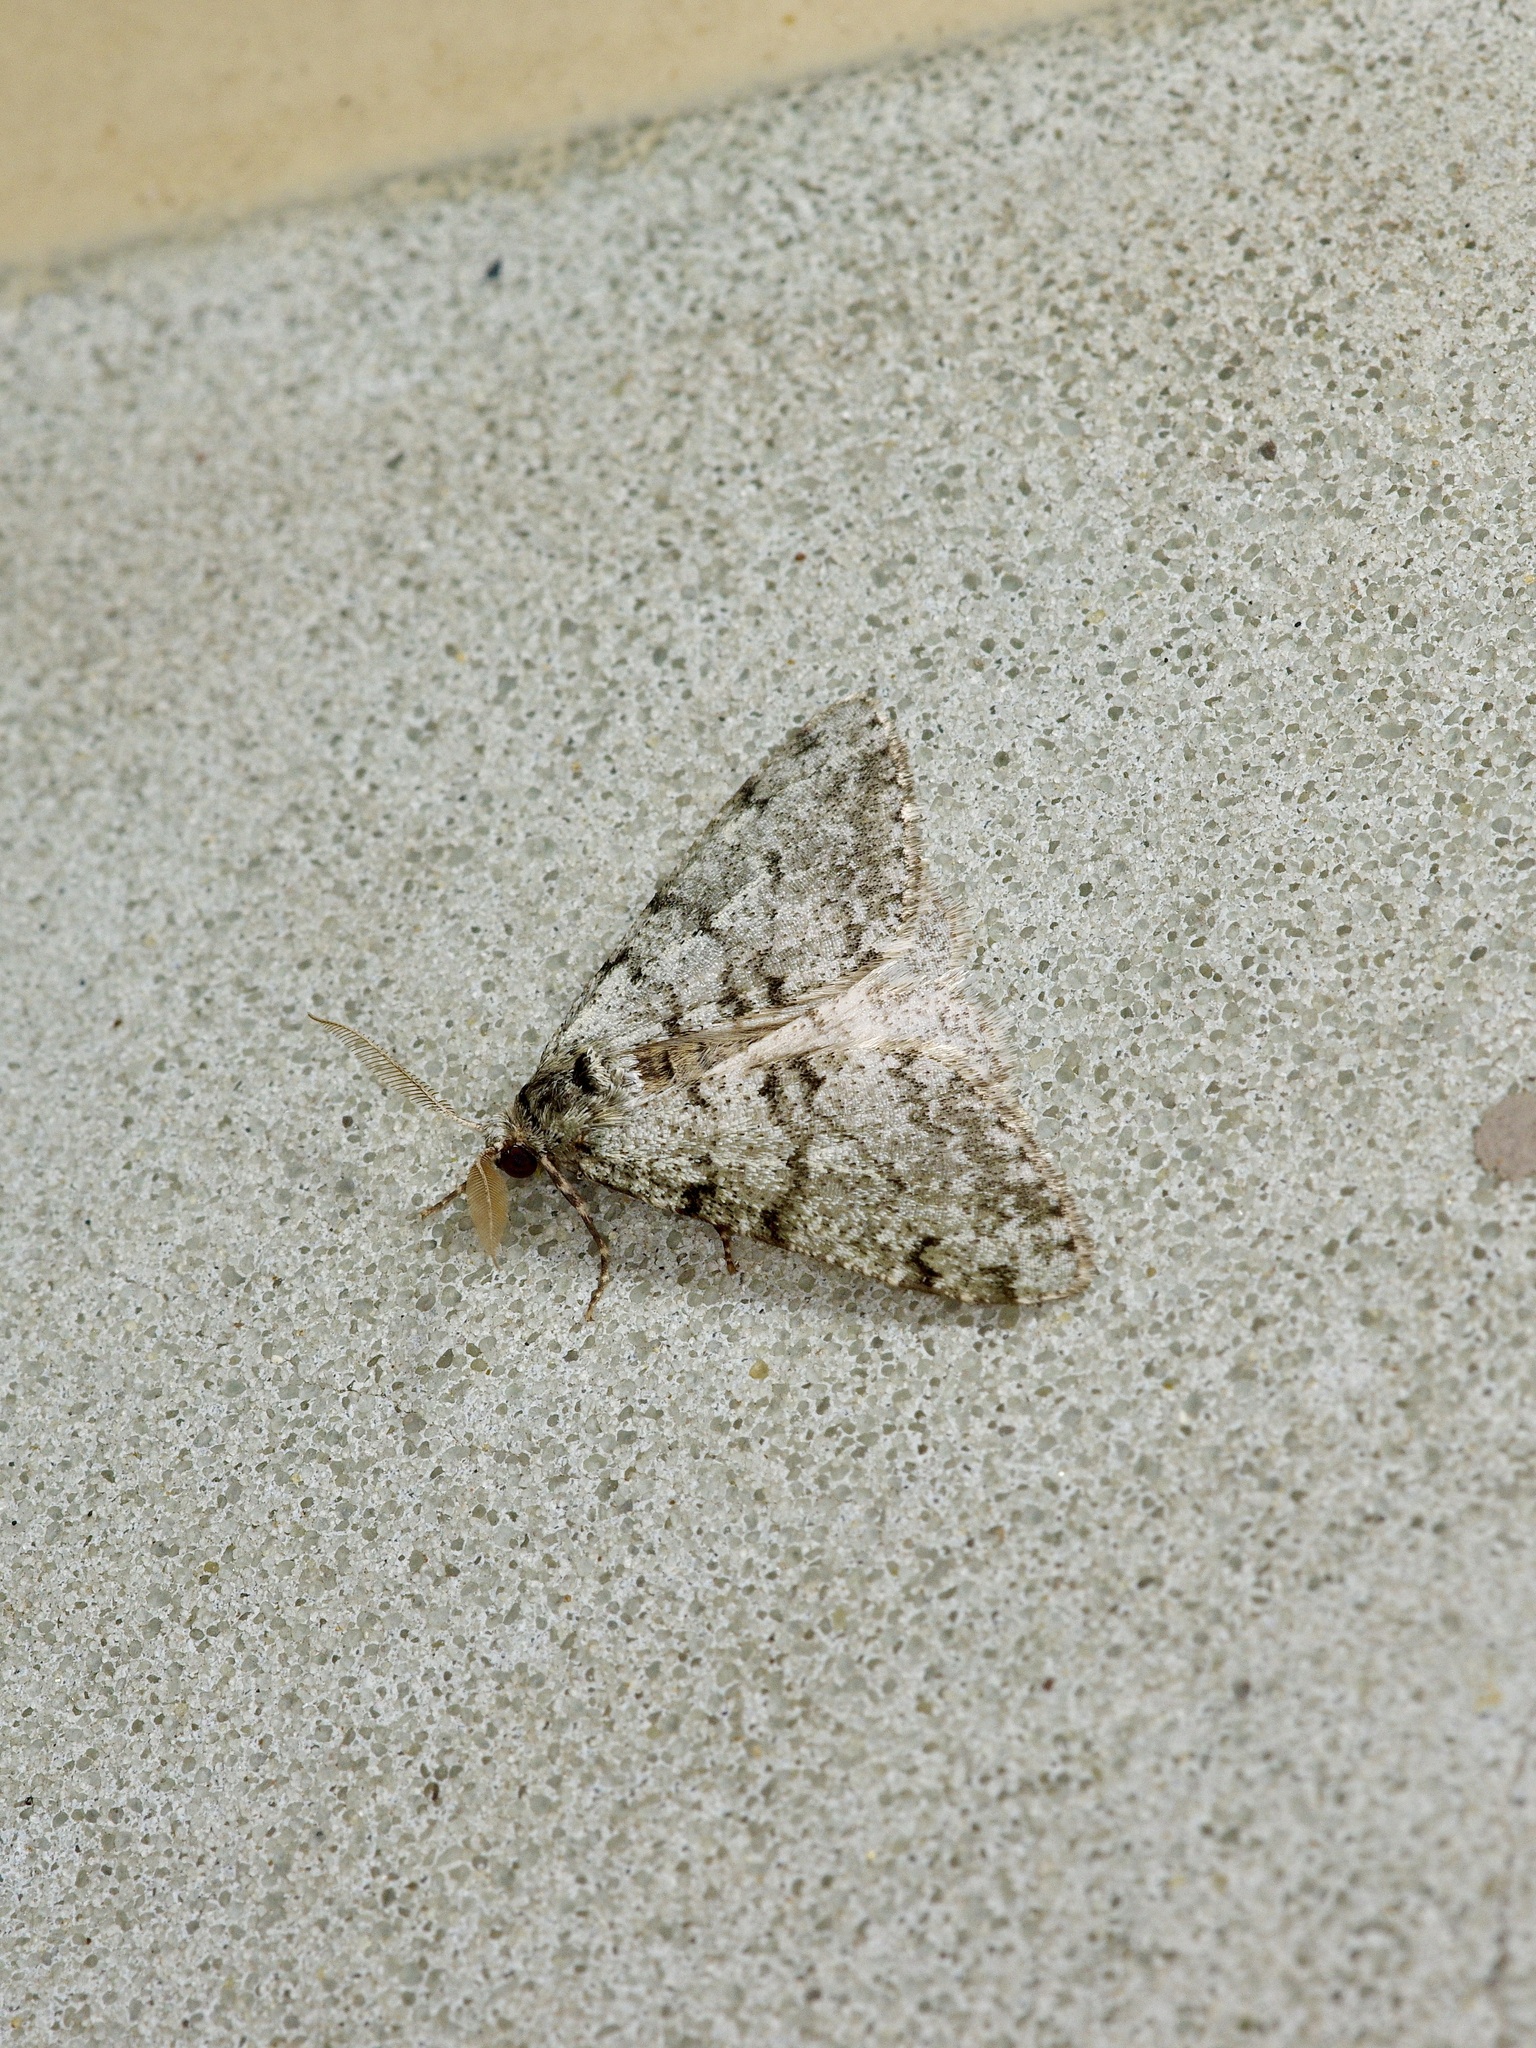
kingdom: Animalia
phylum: Arthropoda
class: Insecta
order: Lepidoptera
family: Geometridae
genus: Phigalia
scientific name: Phigalia strigataria
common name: Small phigalia
